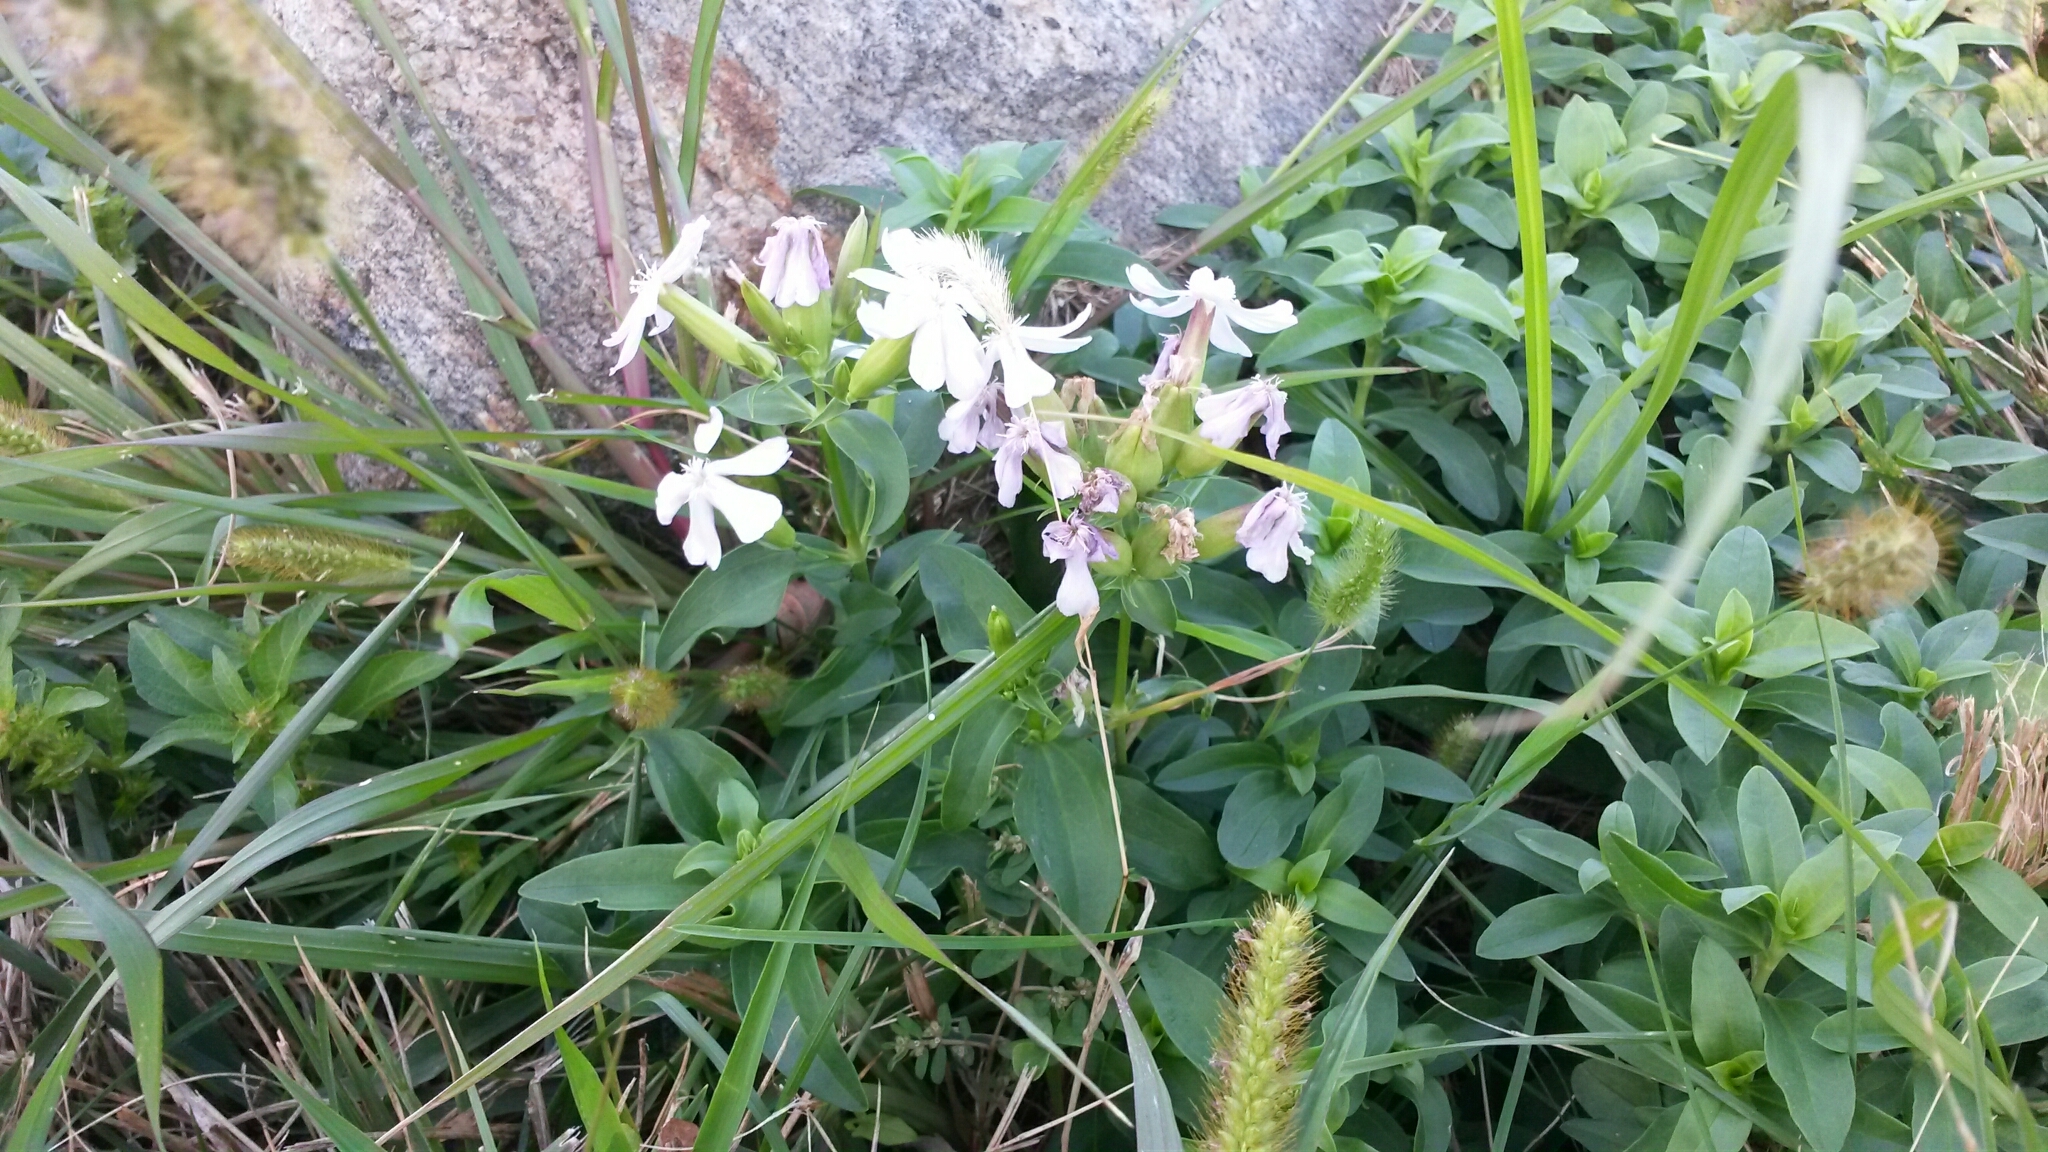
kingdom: Plantae
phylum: Tracheophyta
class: Magnoliopsida
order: Caryophyllales
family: Caryophyllaceae
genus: Saponaria
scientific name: Saponaria officinalis
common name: Soapwort
